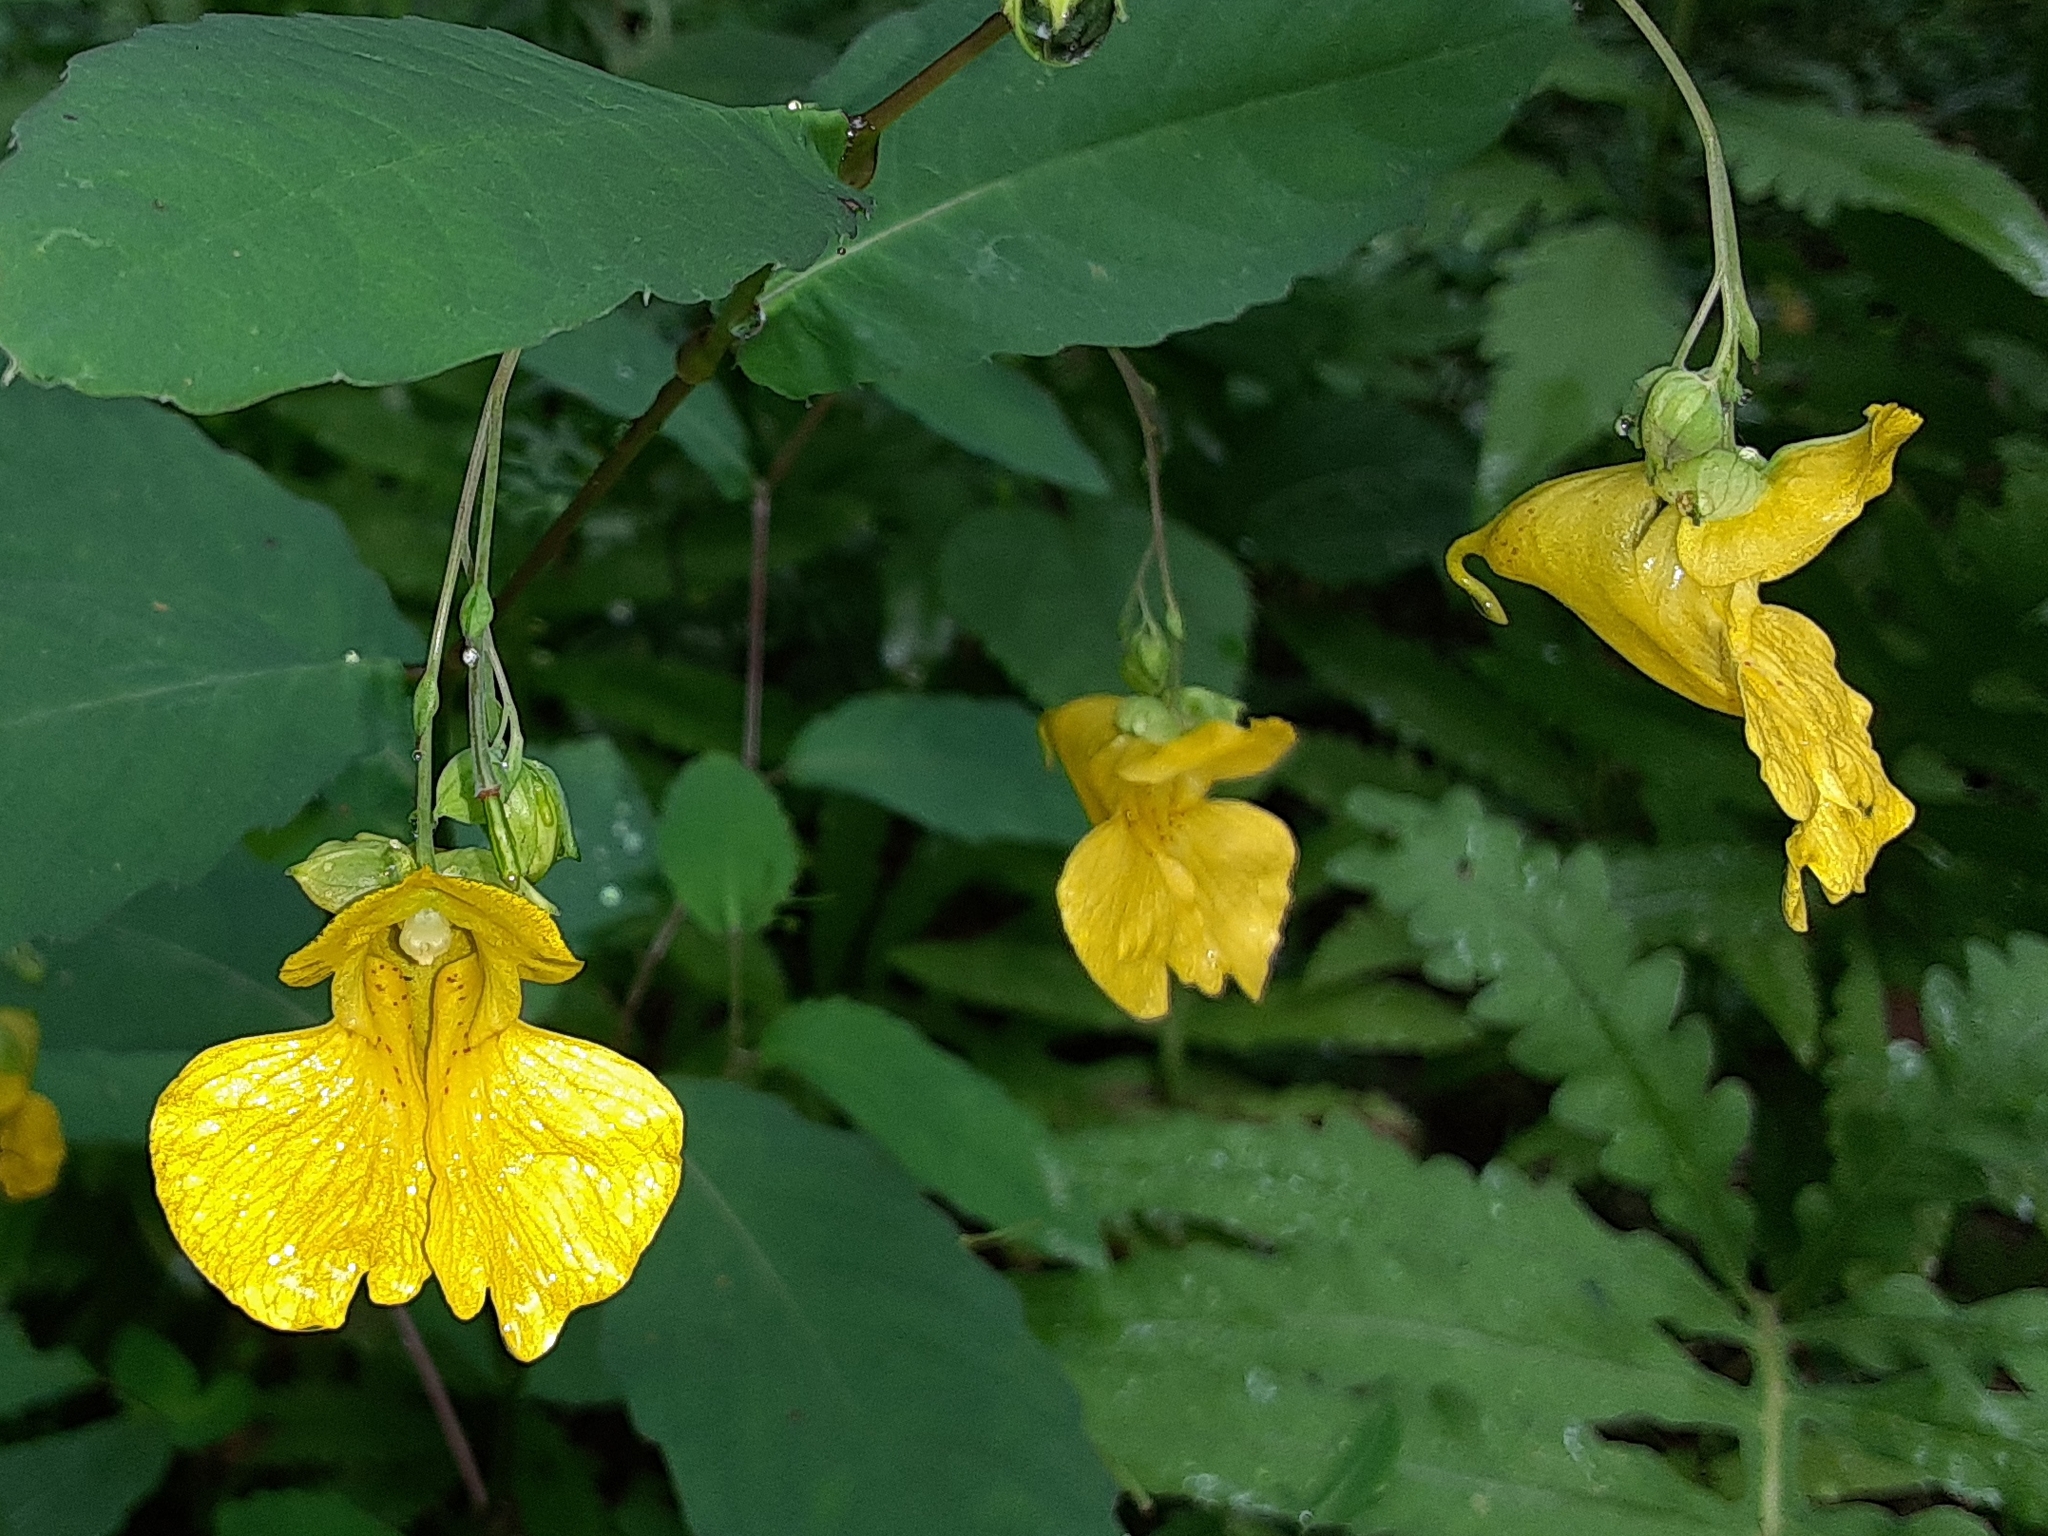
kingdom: Plantae
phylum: Tracheophyta
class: Magnoliopsida
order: Ericales
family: Balsaminaceae
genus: Impatiens
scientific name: Impatiens pallida
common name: Pale snapweed
